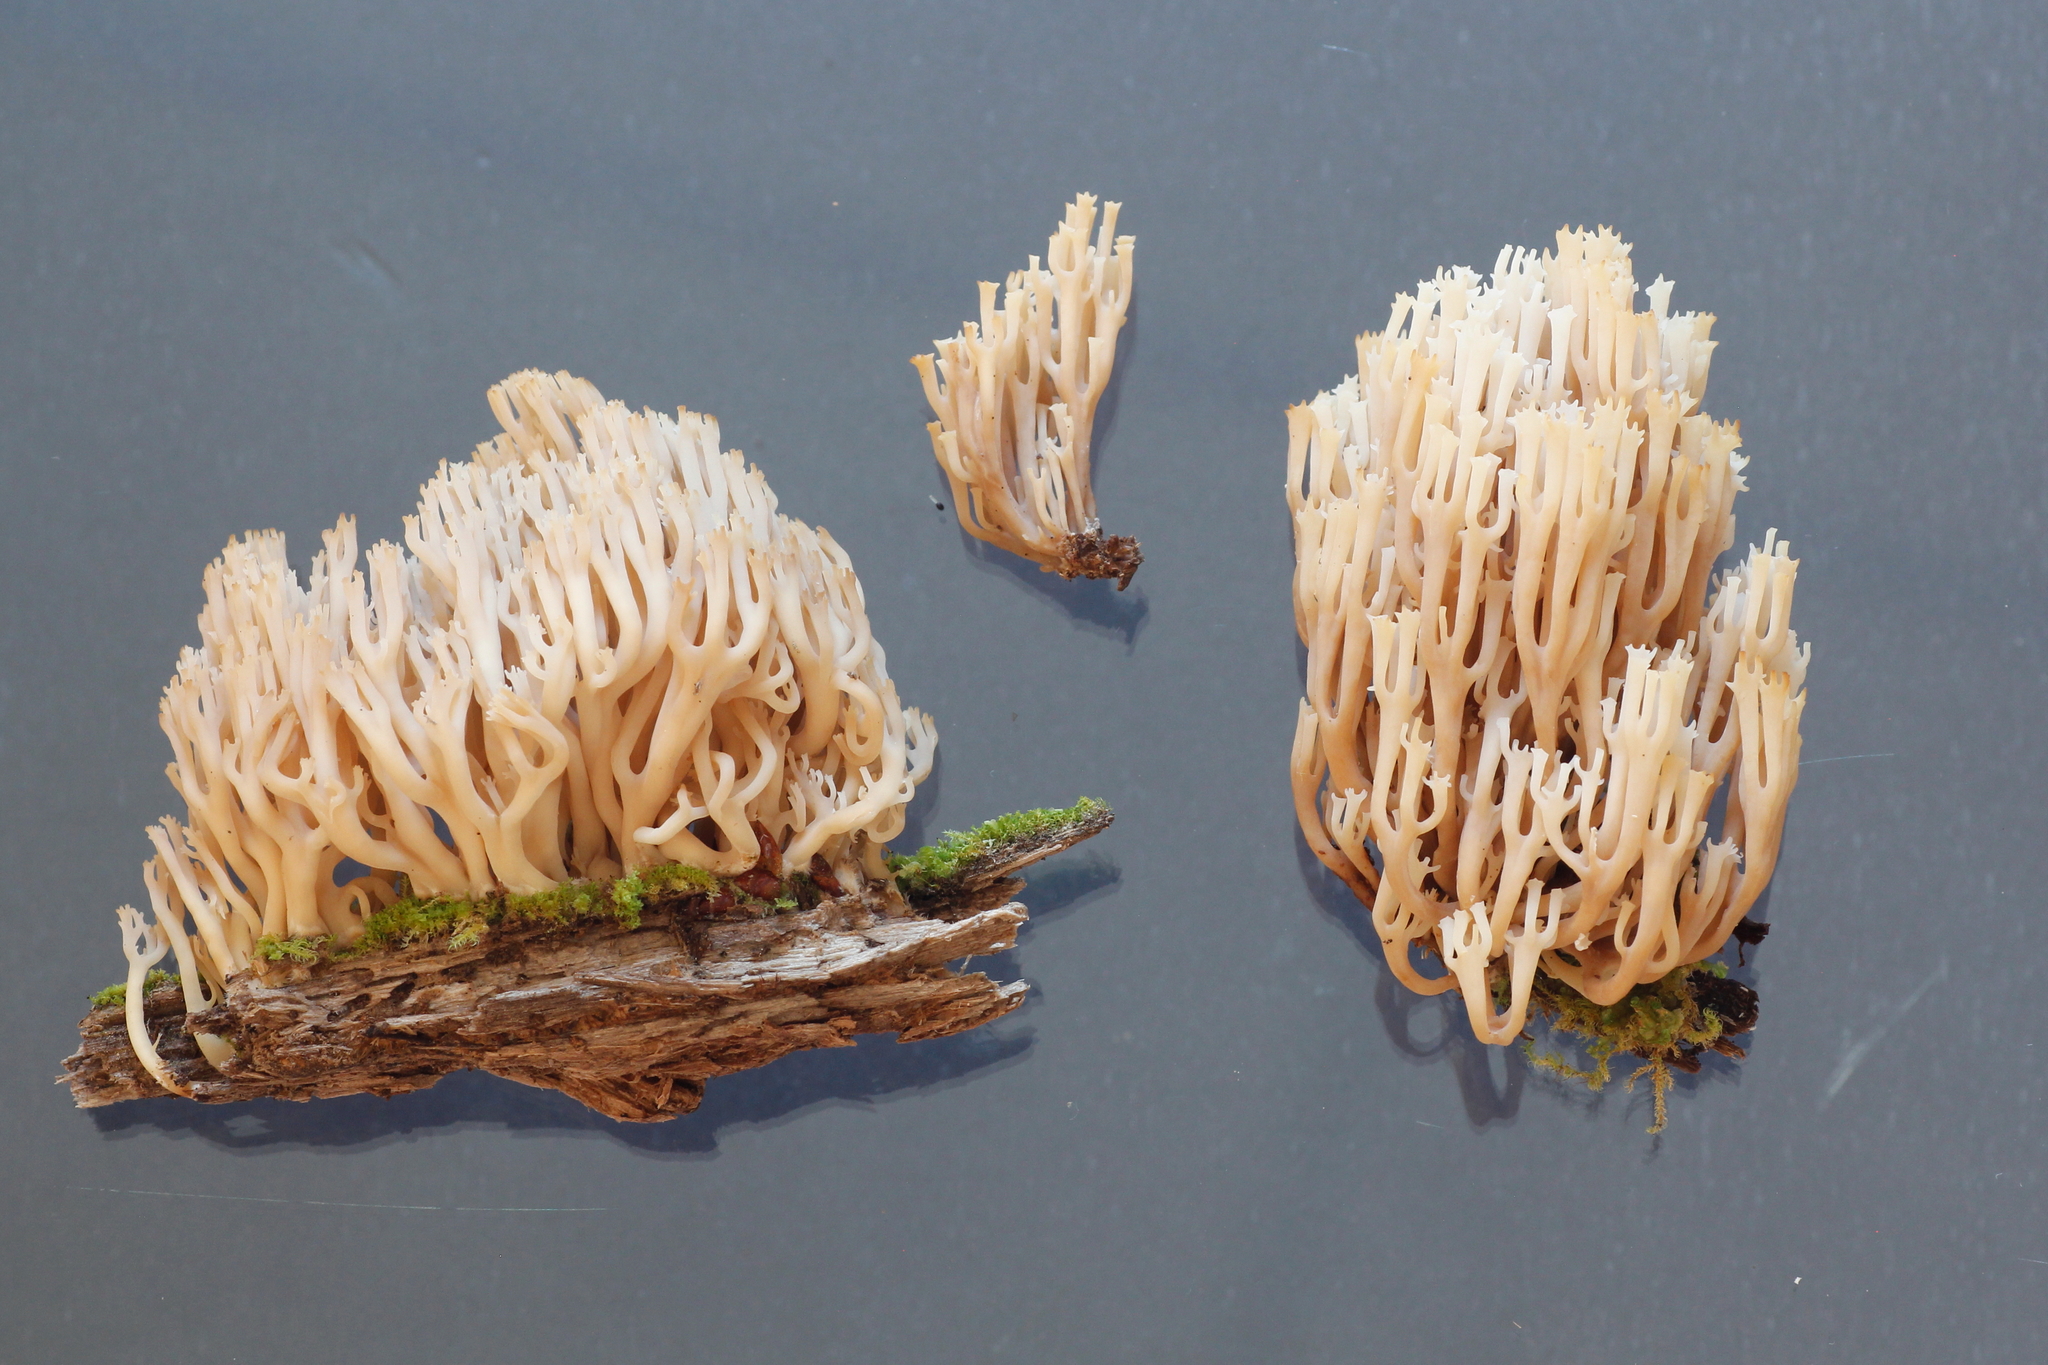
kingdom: Fungi
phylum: Basidiomycota
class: Agaricomycetes
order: Russulales
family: Auriscalpiaceae
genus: Artomyces
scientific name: Artomyces pyxidatus
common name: Crown-tipped coral fungus
